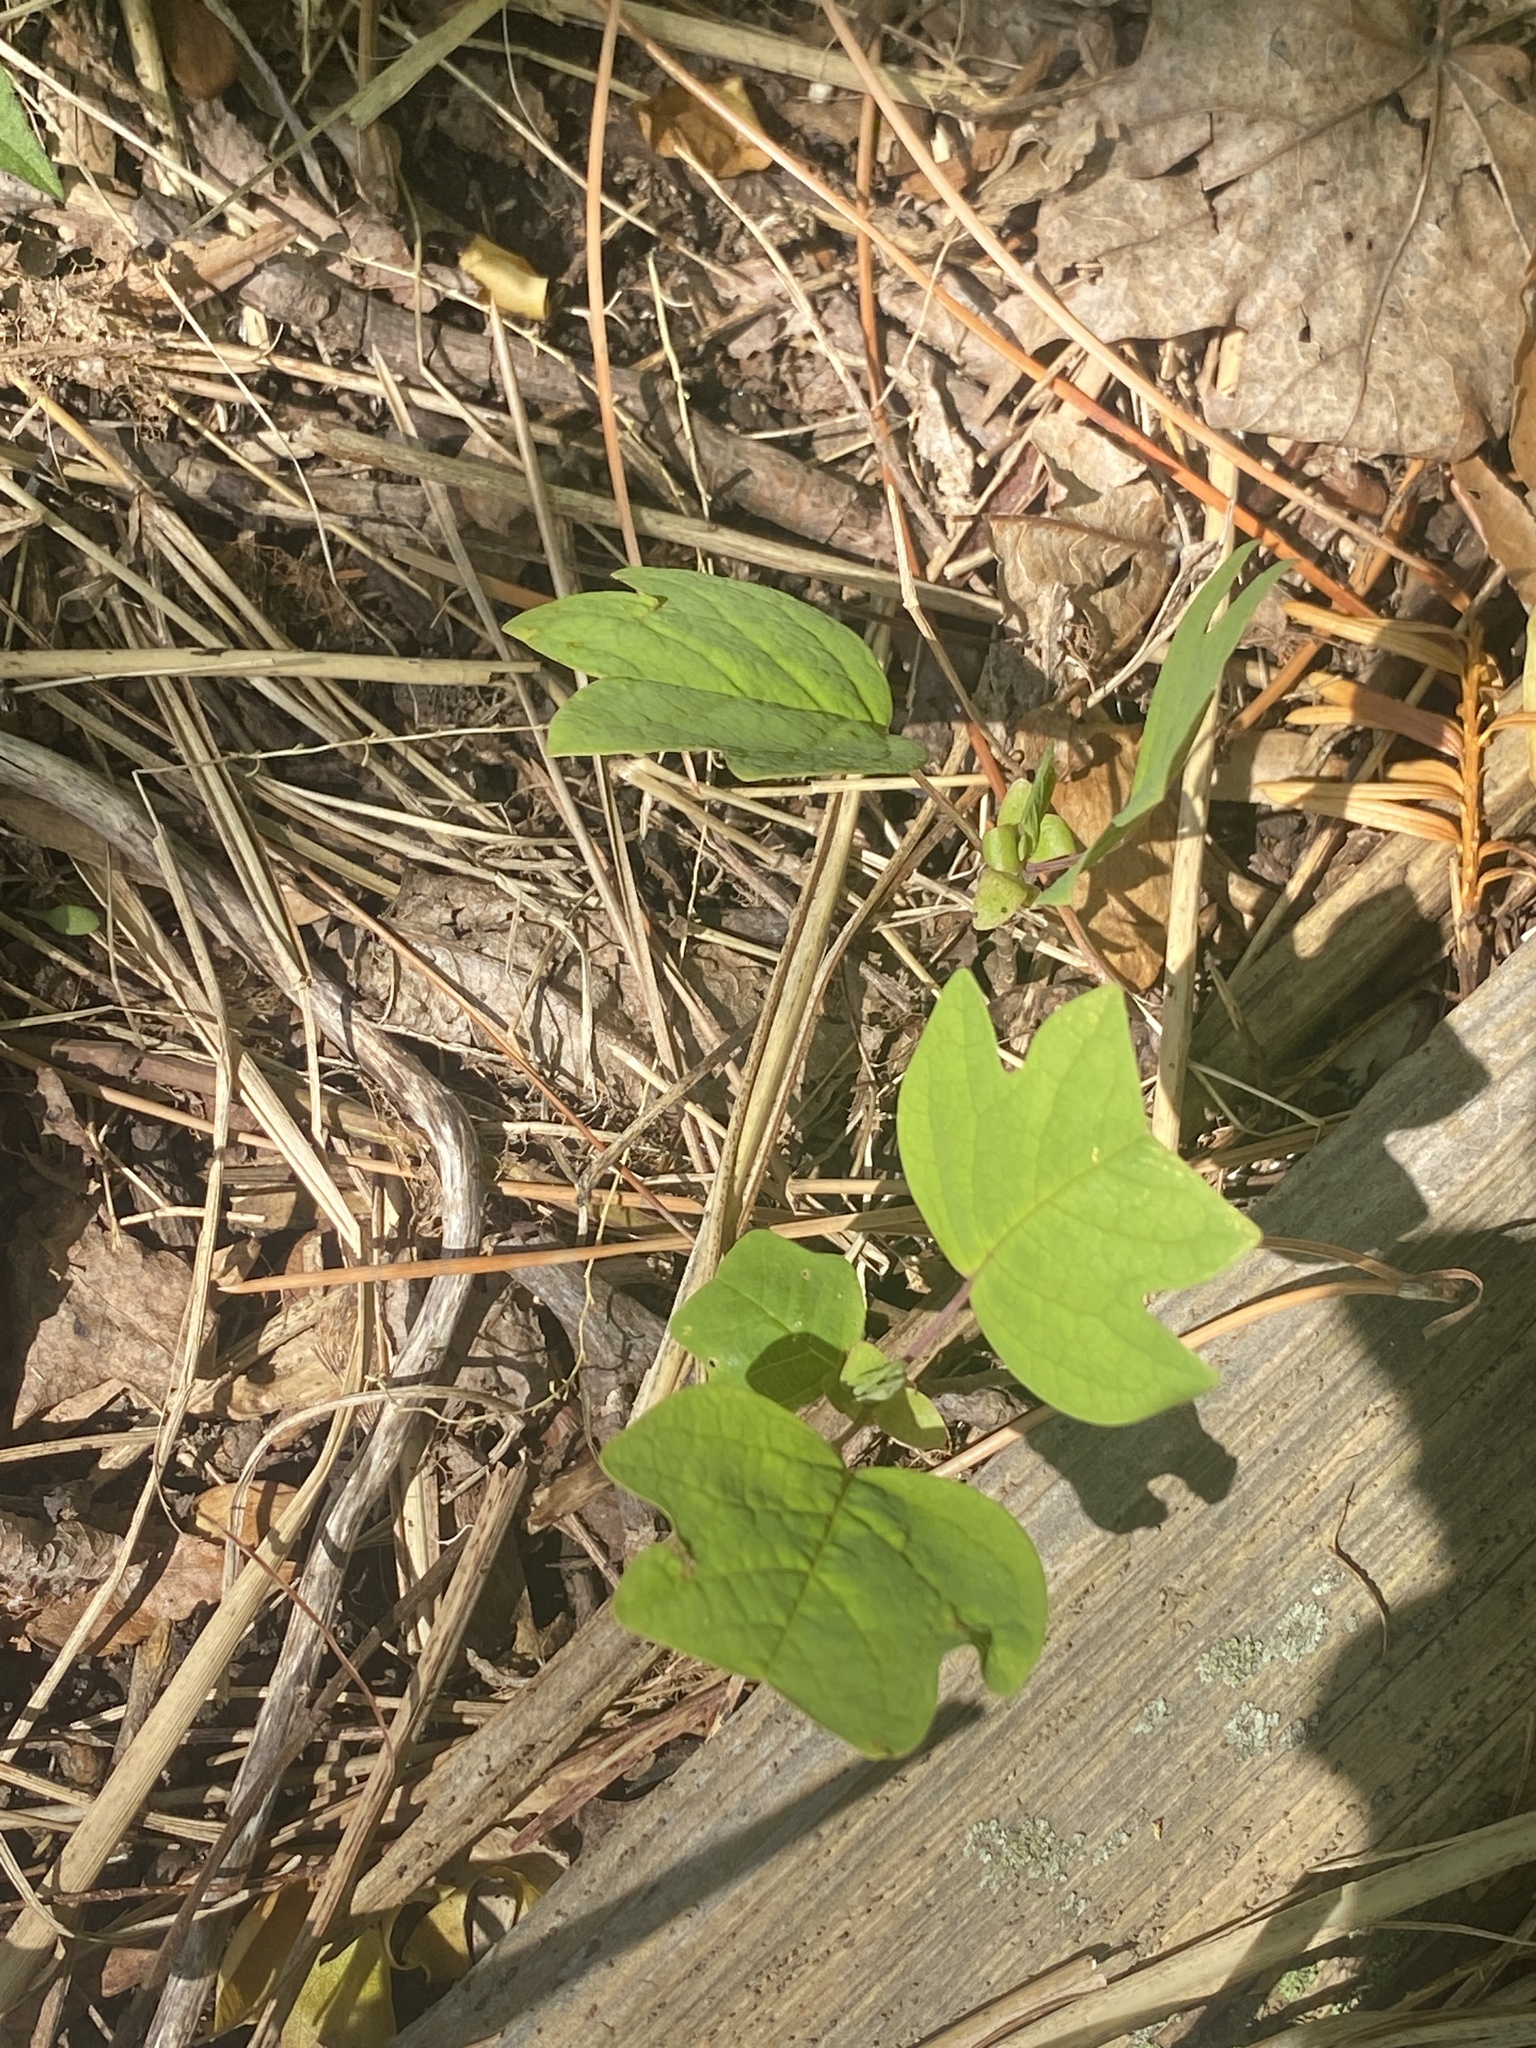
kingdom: Plantae
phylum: Tracheophyta
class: Magnoliopsida
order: Magnoliales
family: Magnoliaceae
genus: Liriodendron
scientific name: Liriodendron tulipifera
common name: Tulip tree
